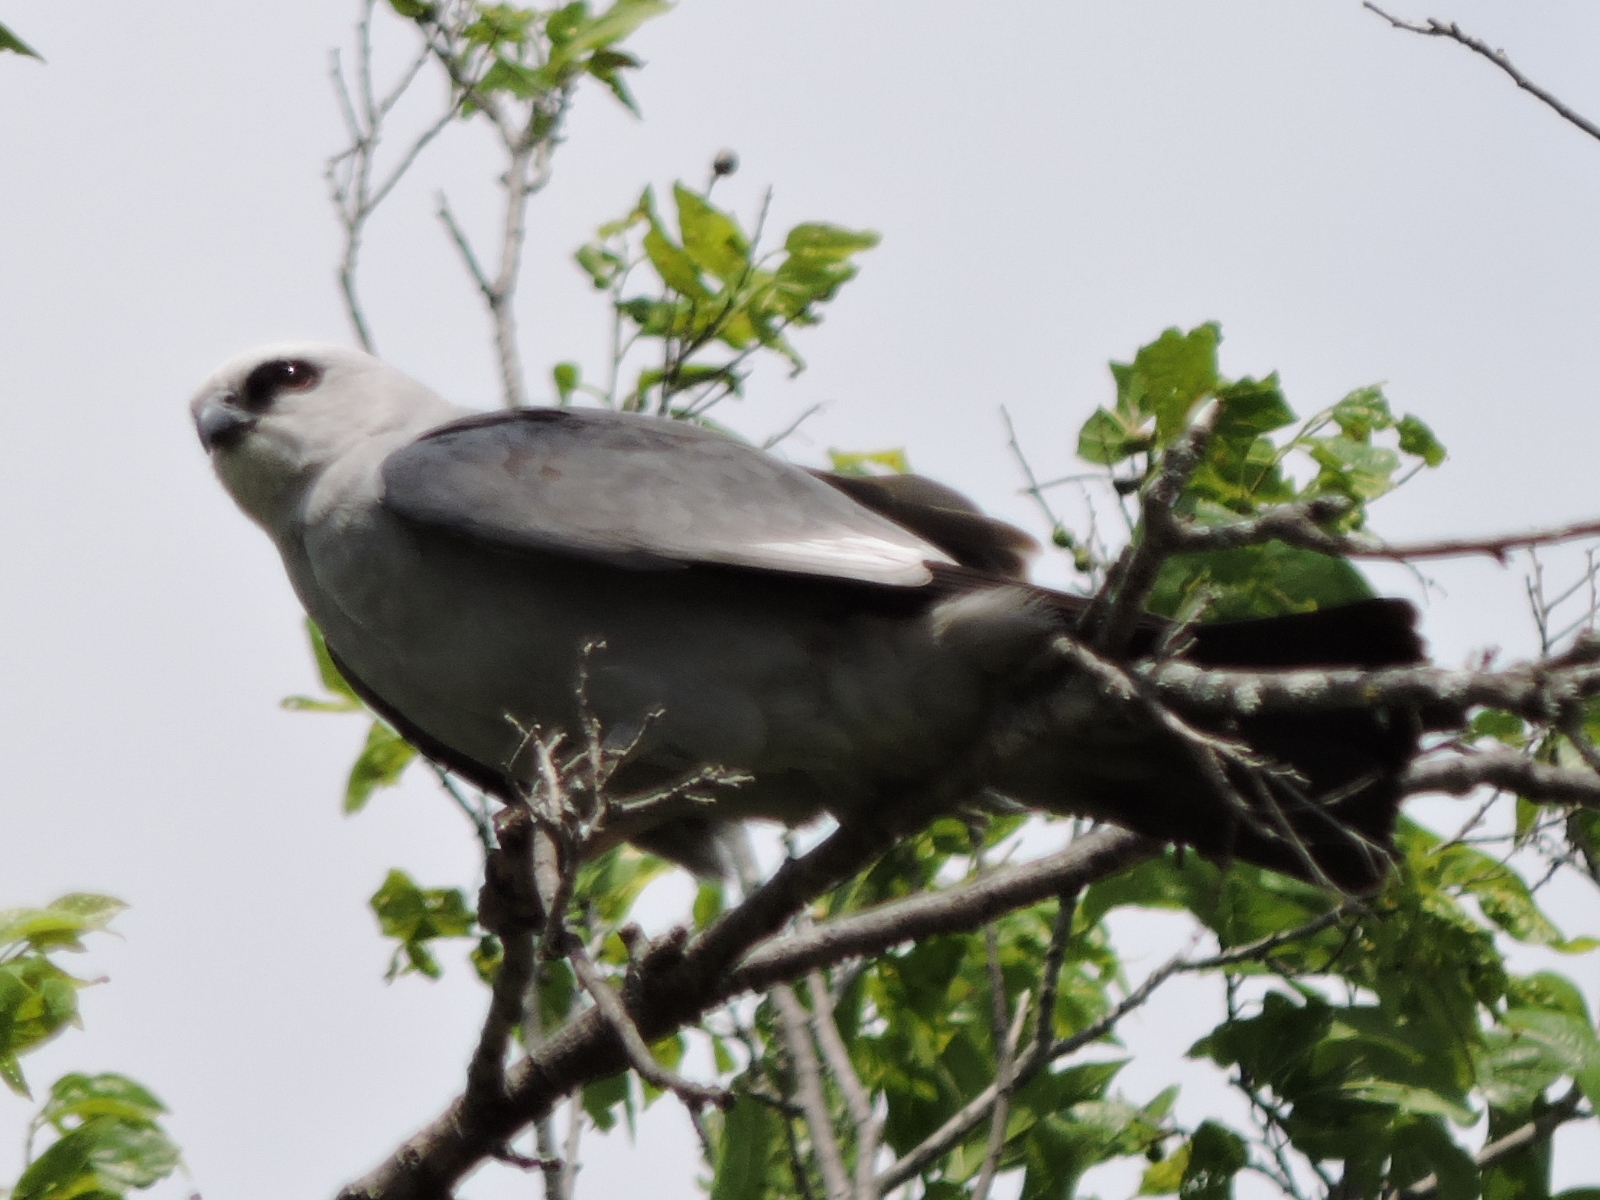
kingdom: Animalia
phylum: Chordata
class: Aves
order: Accipitriformes
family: Accipitridae
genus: Ictinia
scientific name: Ictinia mississippiensis
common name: Mississippi kite
